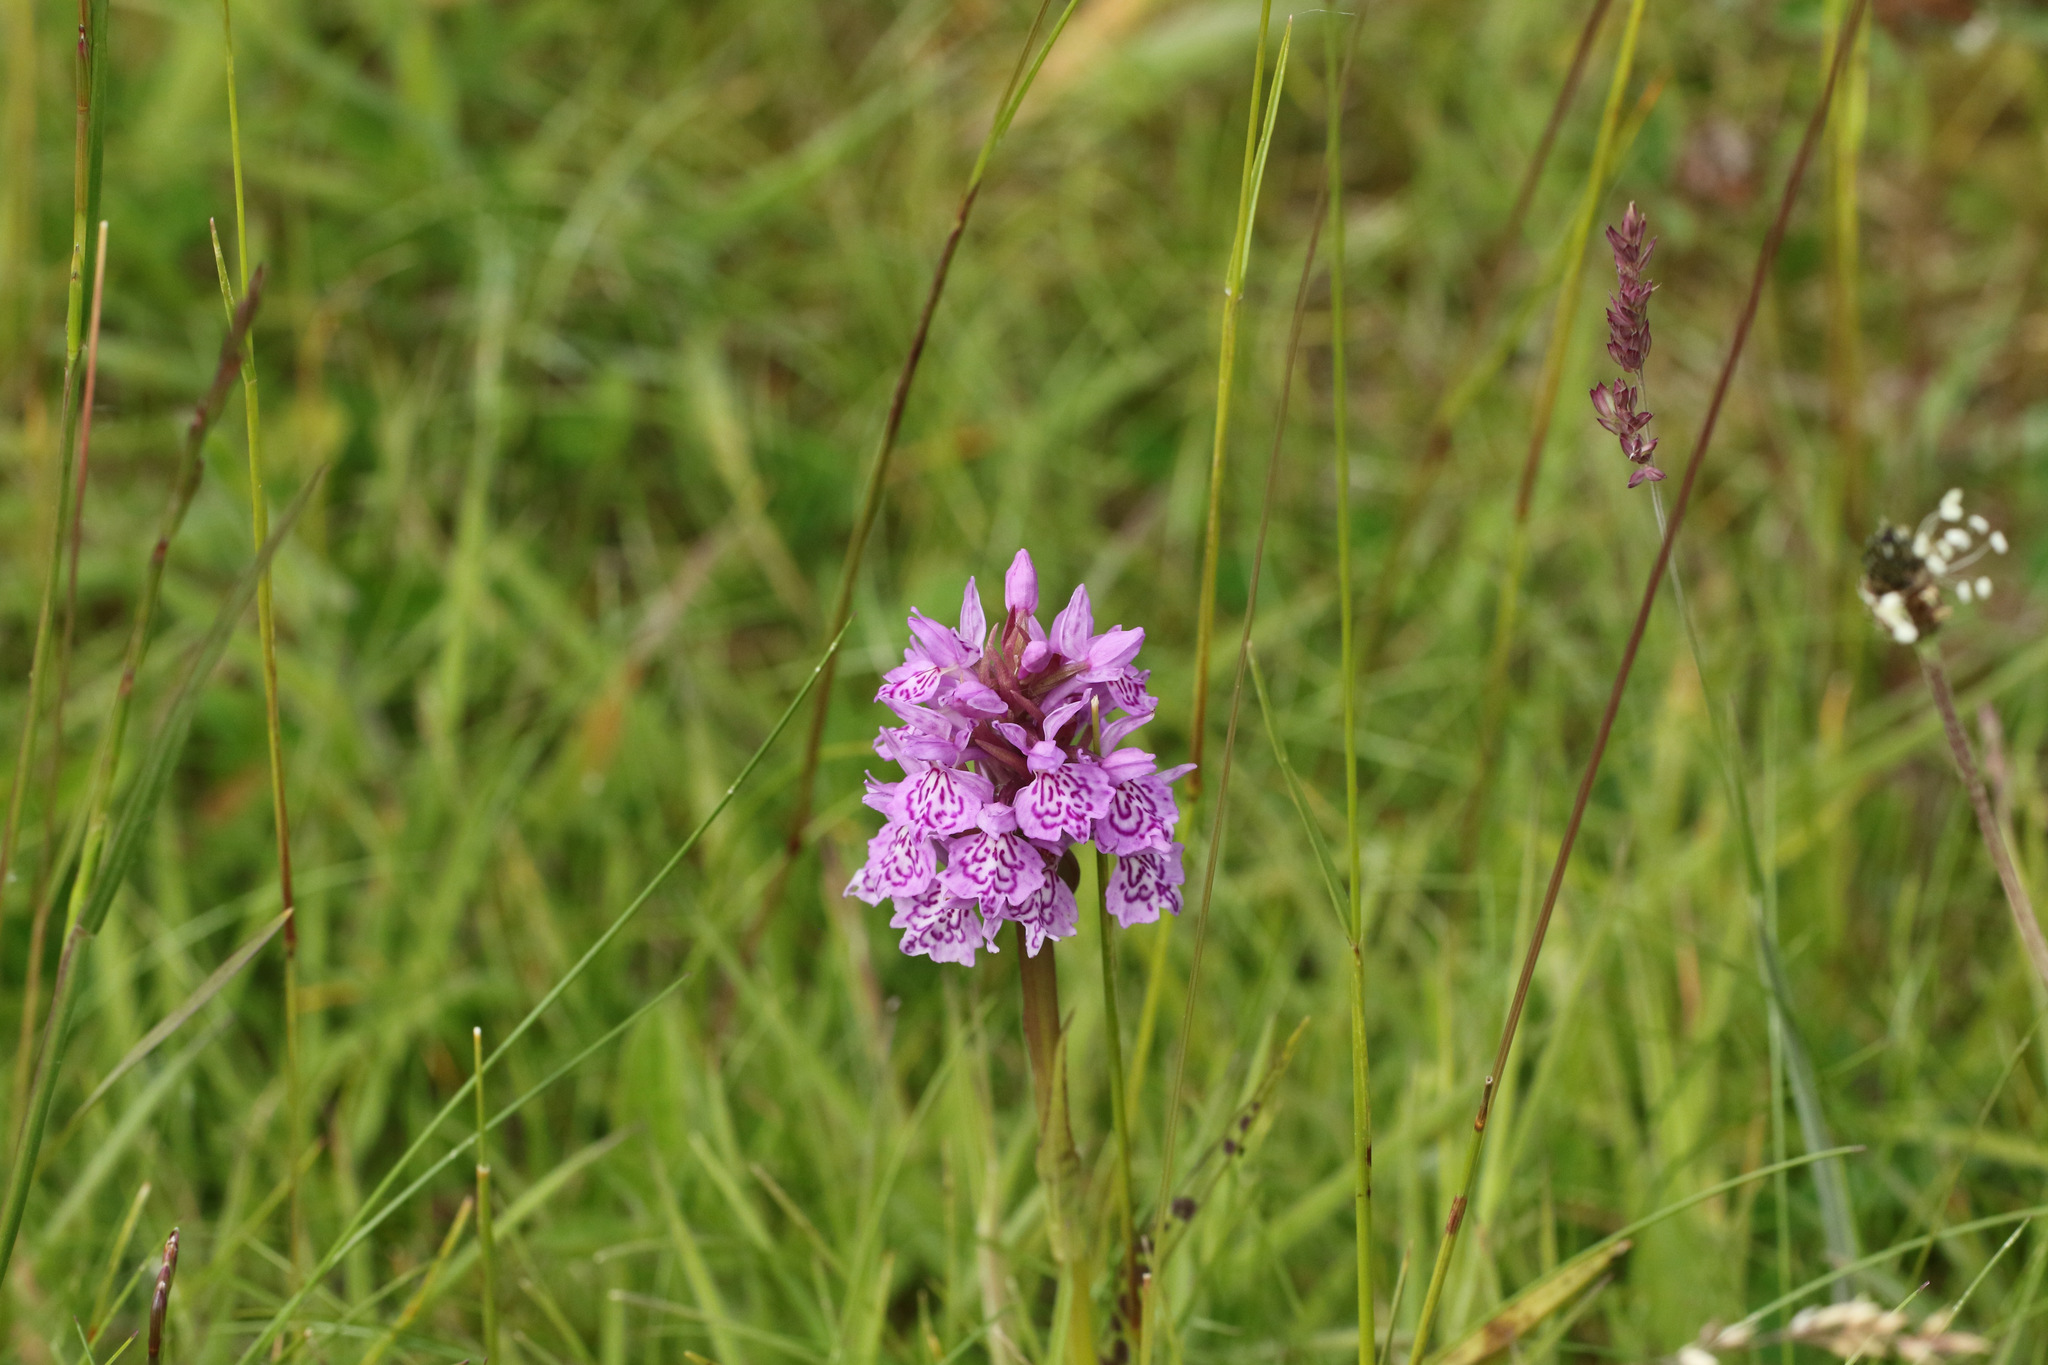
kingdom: Plantae
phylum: Tracheophyta
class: Liliopsida
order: Asparagales
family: Orchidaceae
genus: Dactylorhiza
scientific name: Dactylorhiza maculata
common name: Heath spotted-orchid
